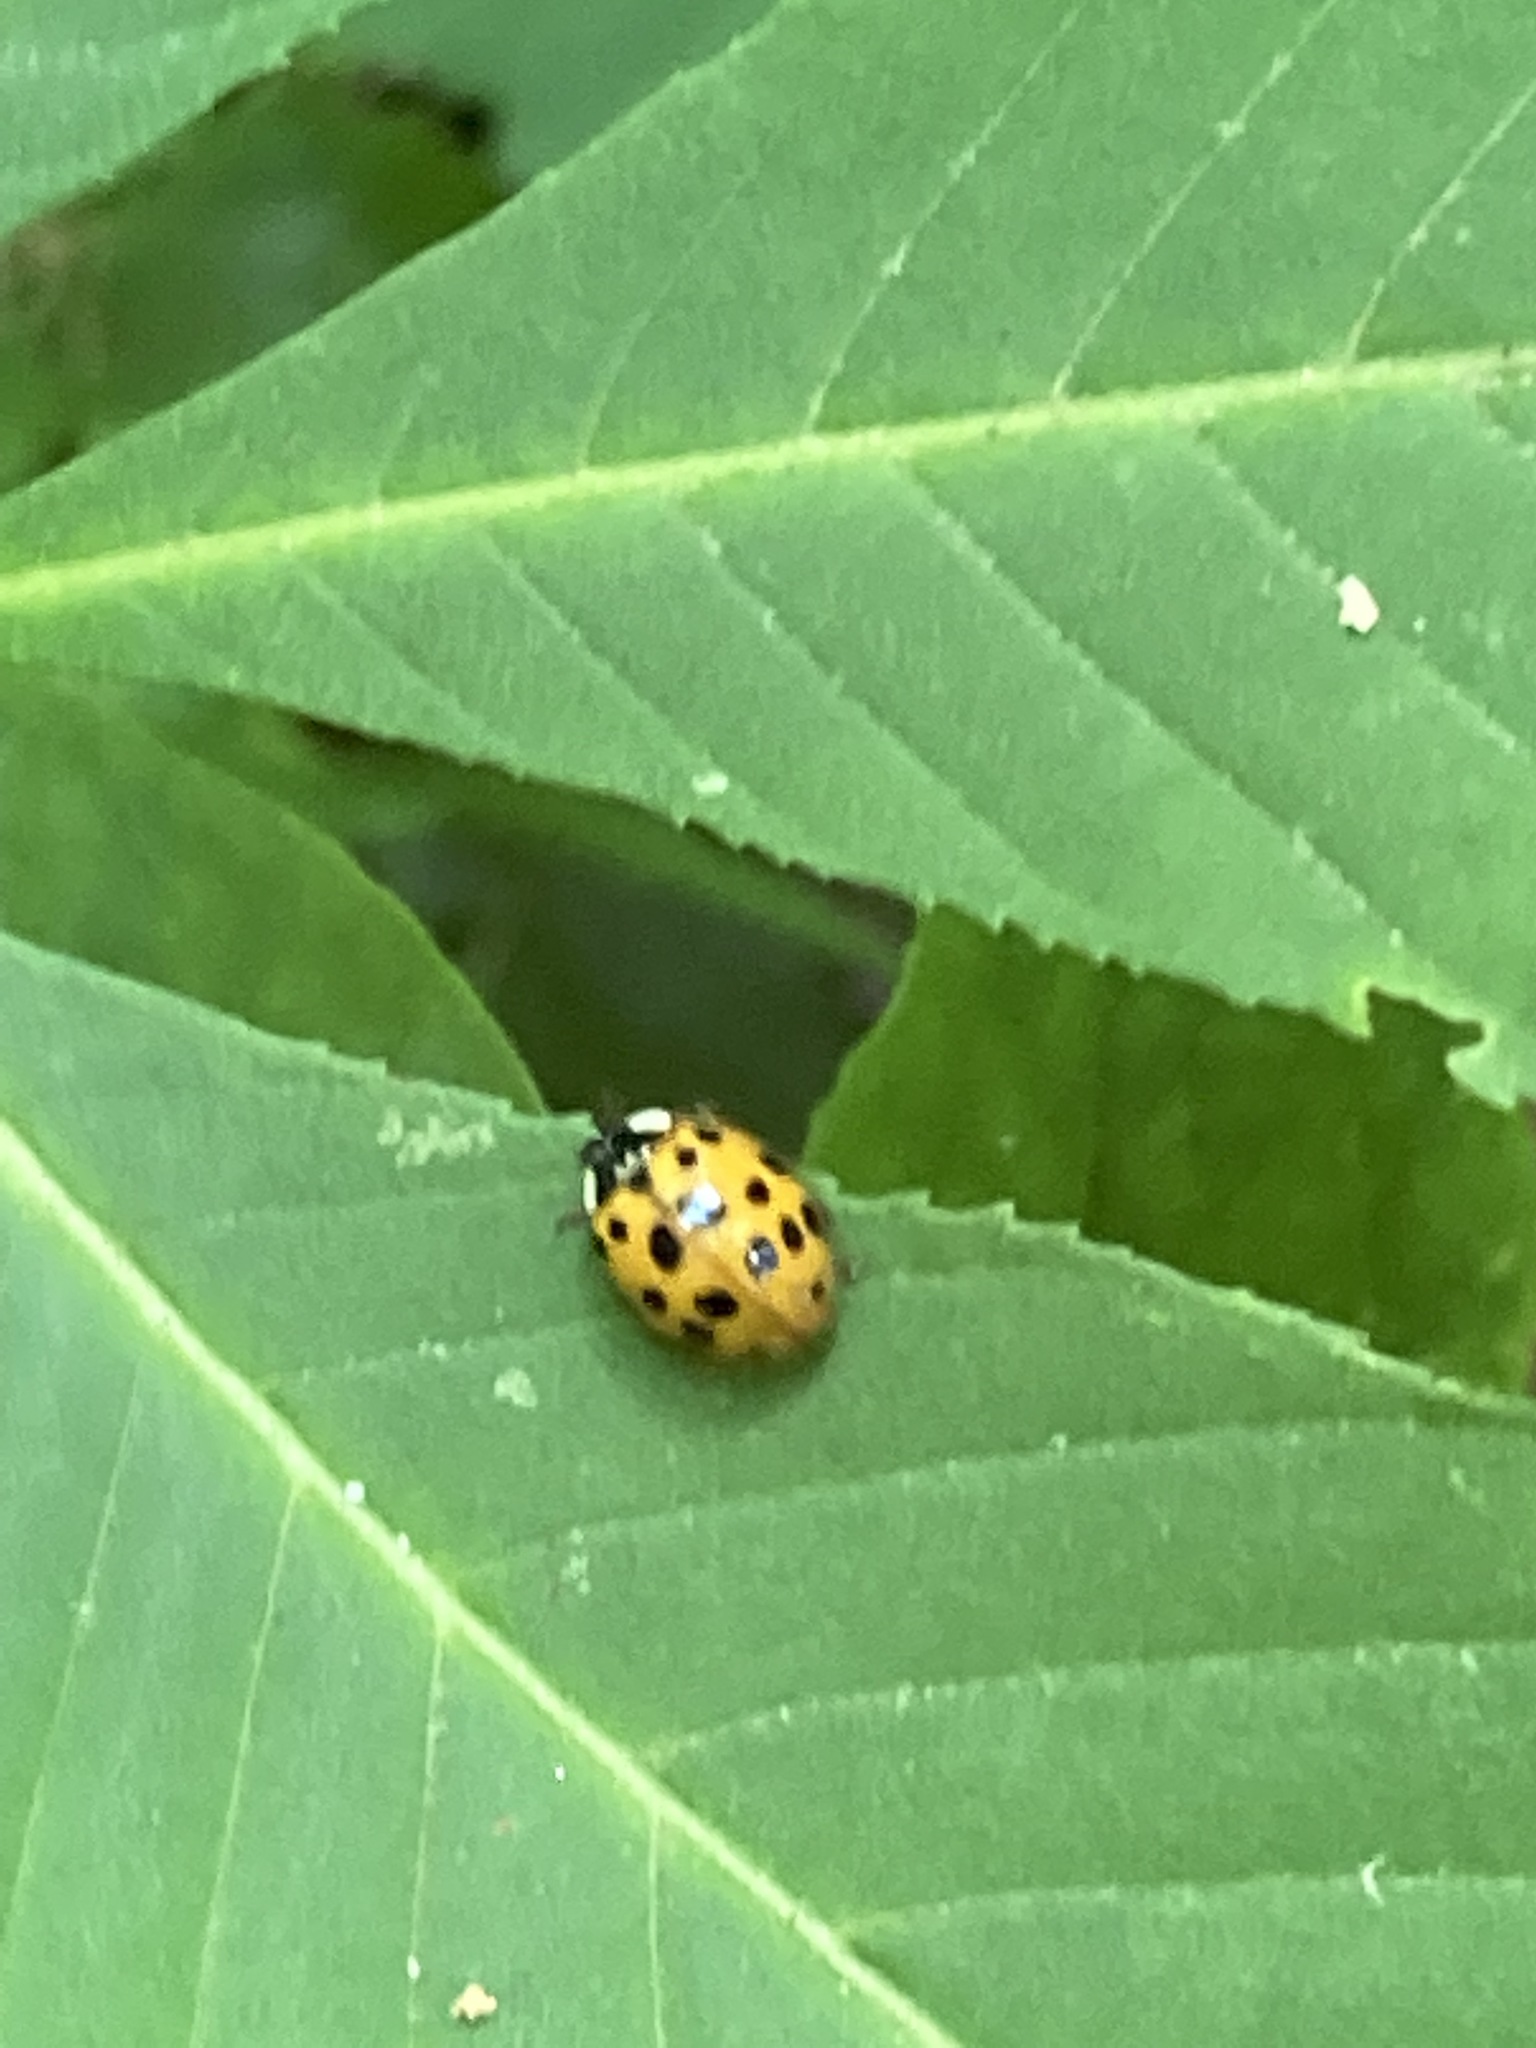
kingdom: Animalia
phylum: Arthropoda
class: Insecta
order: Coleoptera
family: Coccinellidae
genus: Harmonia
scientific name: Harmonia axyridis
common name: Harlequin ladybird
